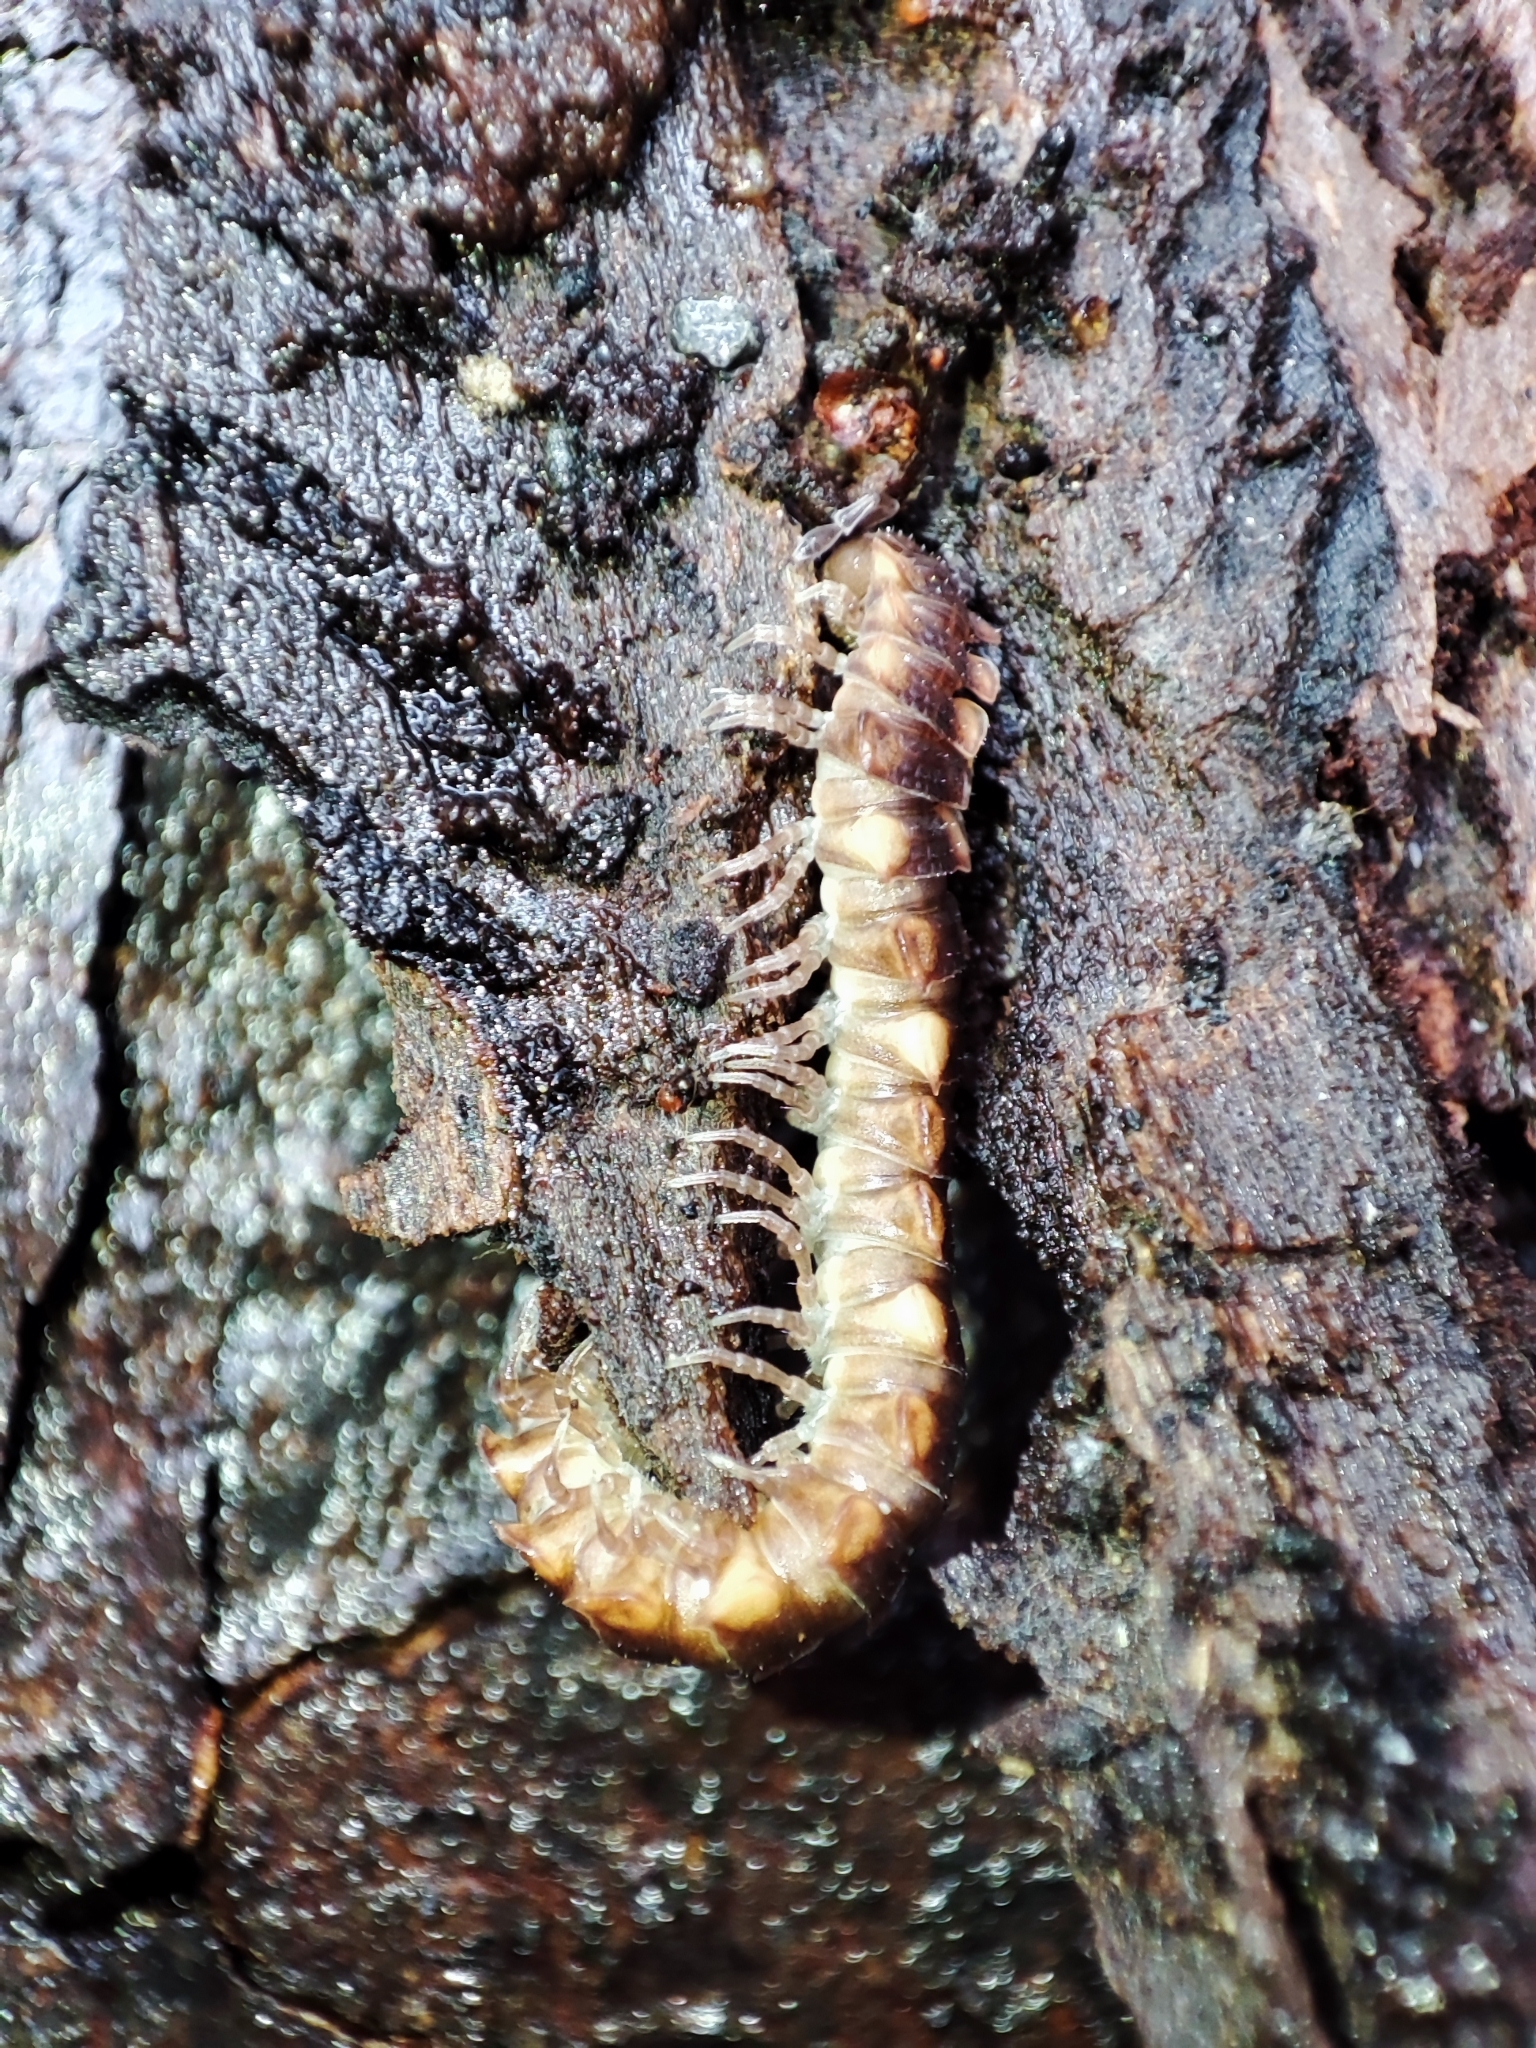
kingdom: Animalia
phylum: Arthropoda
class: Diplopoda
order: Polydesmida
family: Polydesmidae
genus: Polydesmus
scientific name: Polydesmus complanatus
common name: Flat-backed millipede
